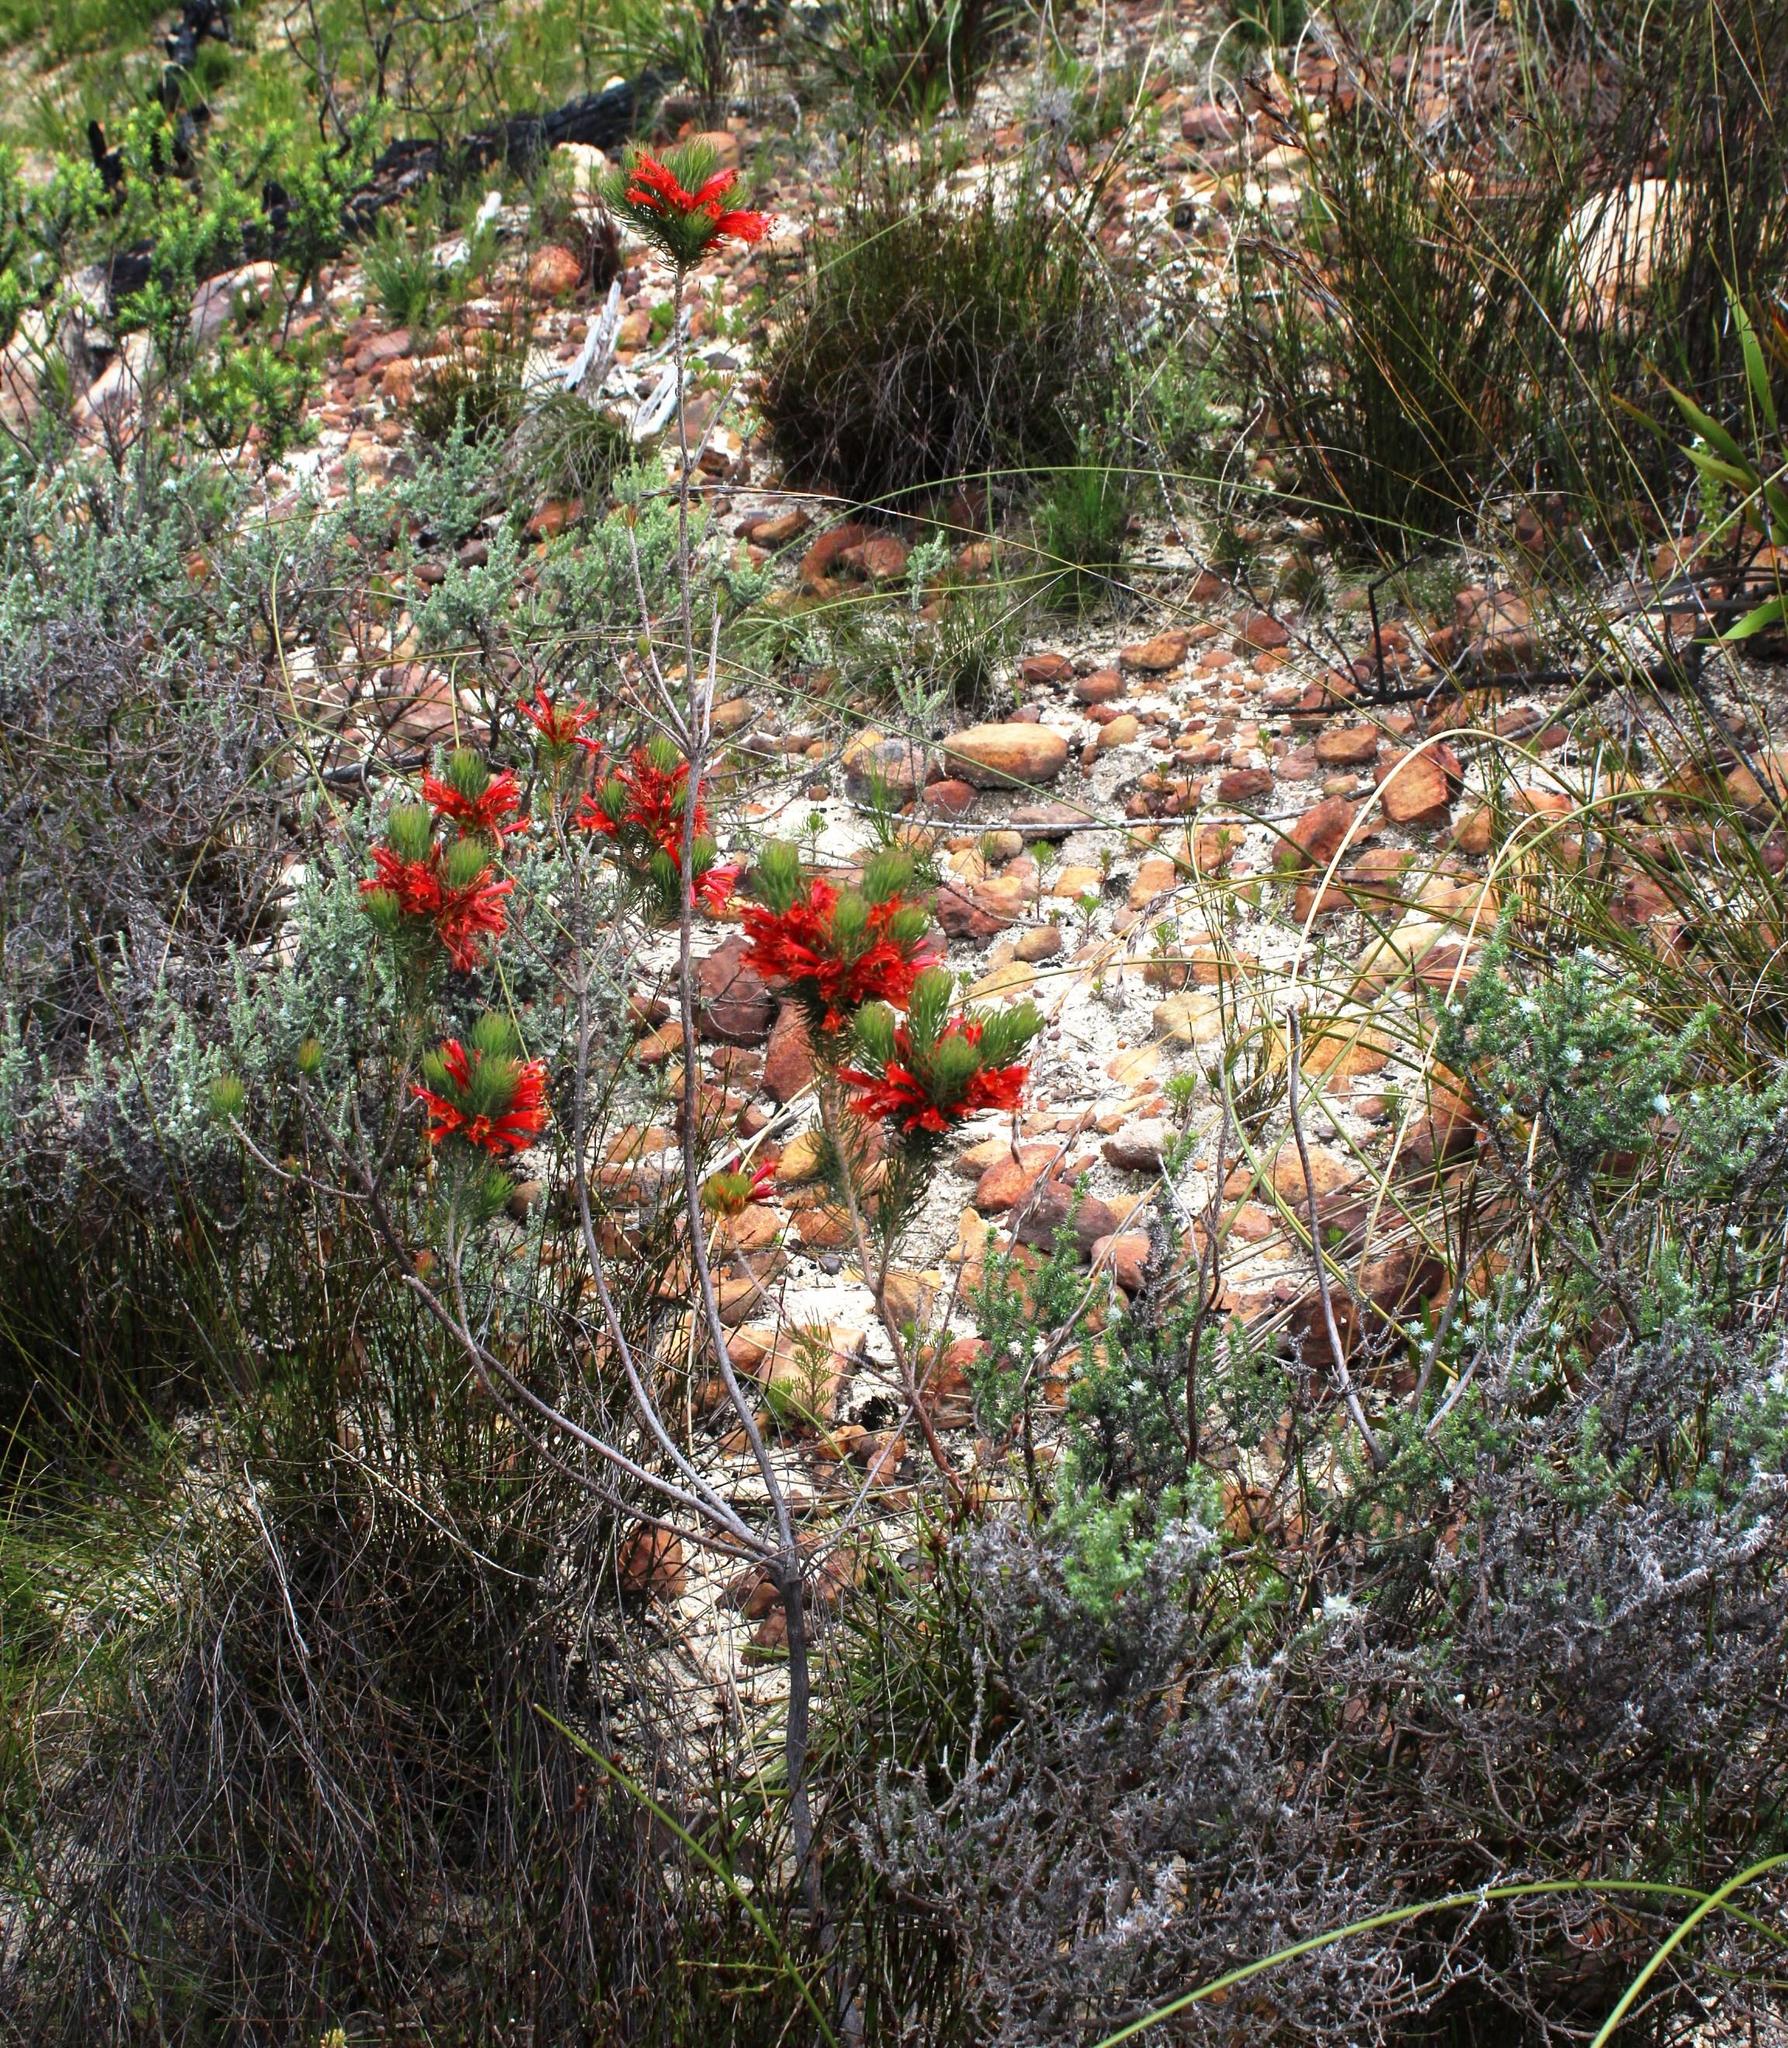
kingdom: Plantae
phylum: Tracheophyta
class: Magnoliopsida
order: Ericales
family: Ericaceae
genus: Erica
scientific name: Erica grandiflora
